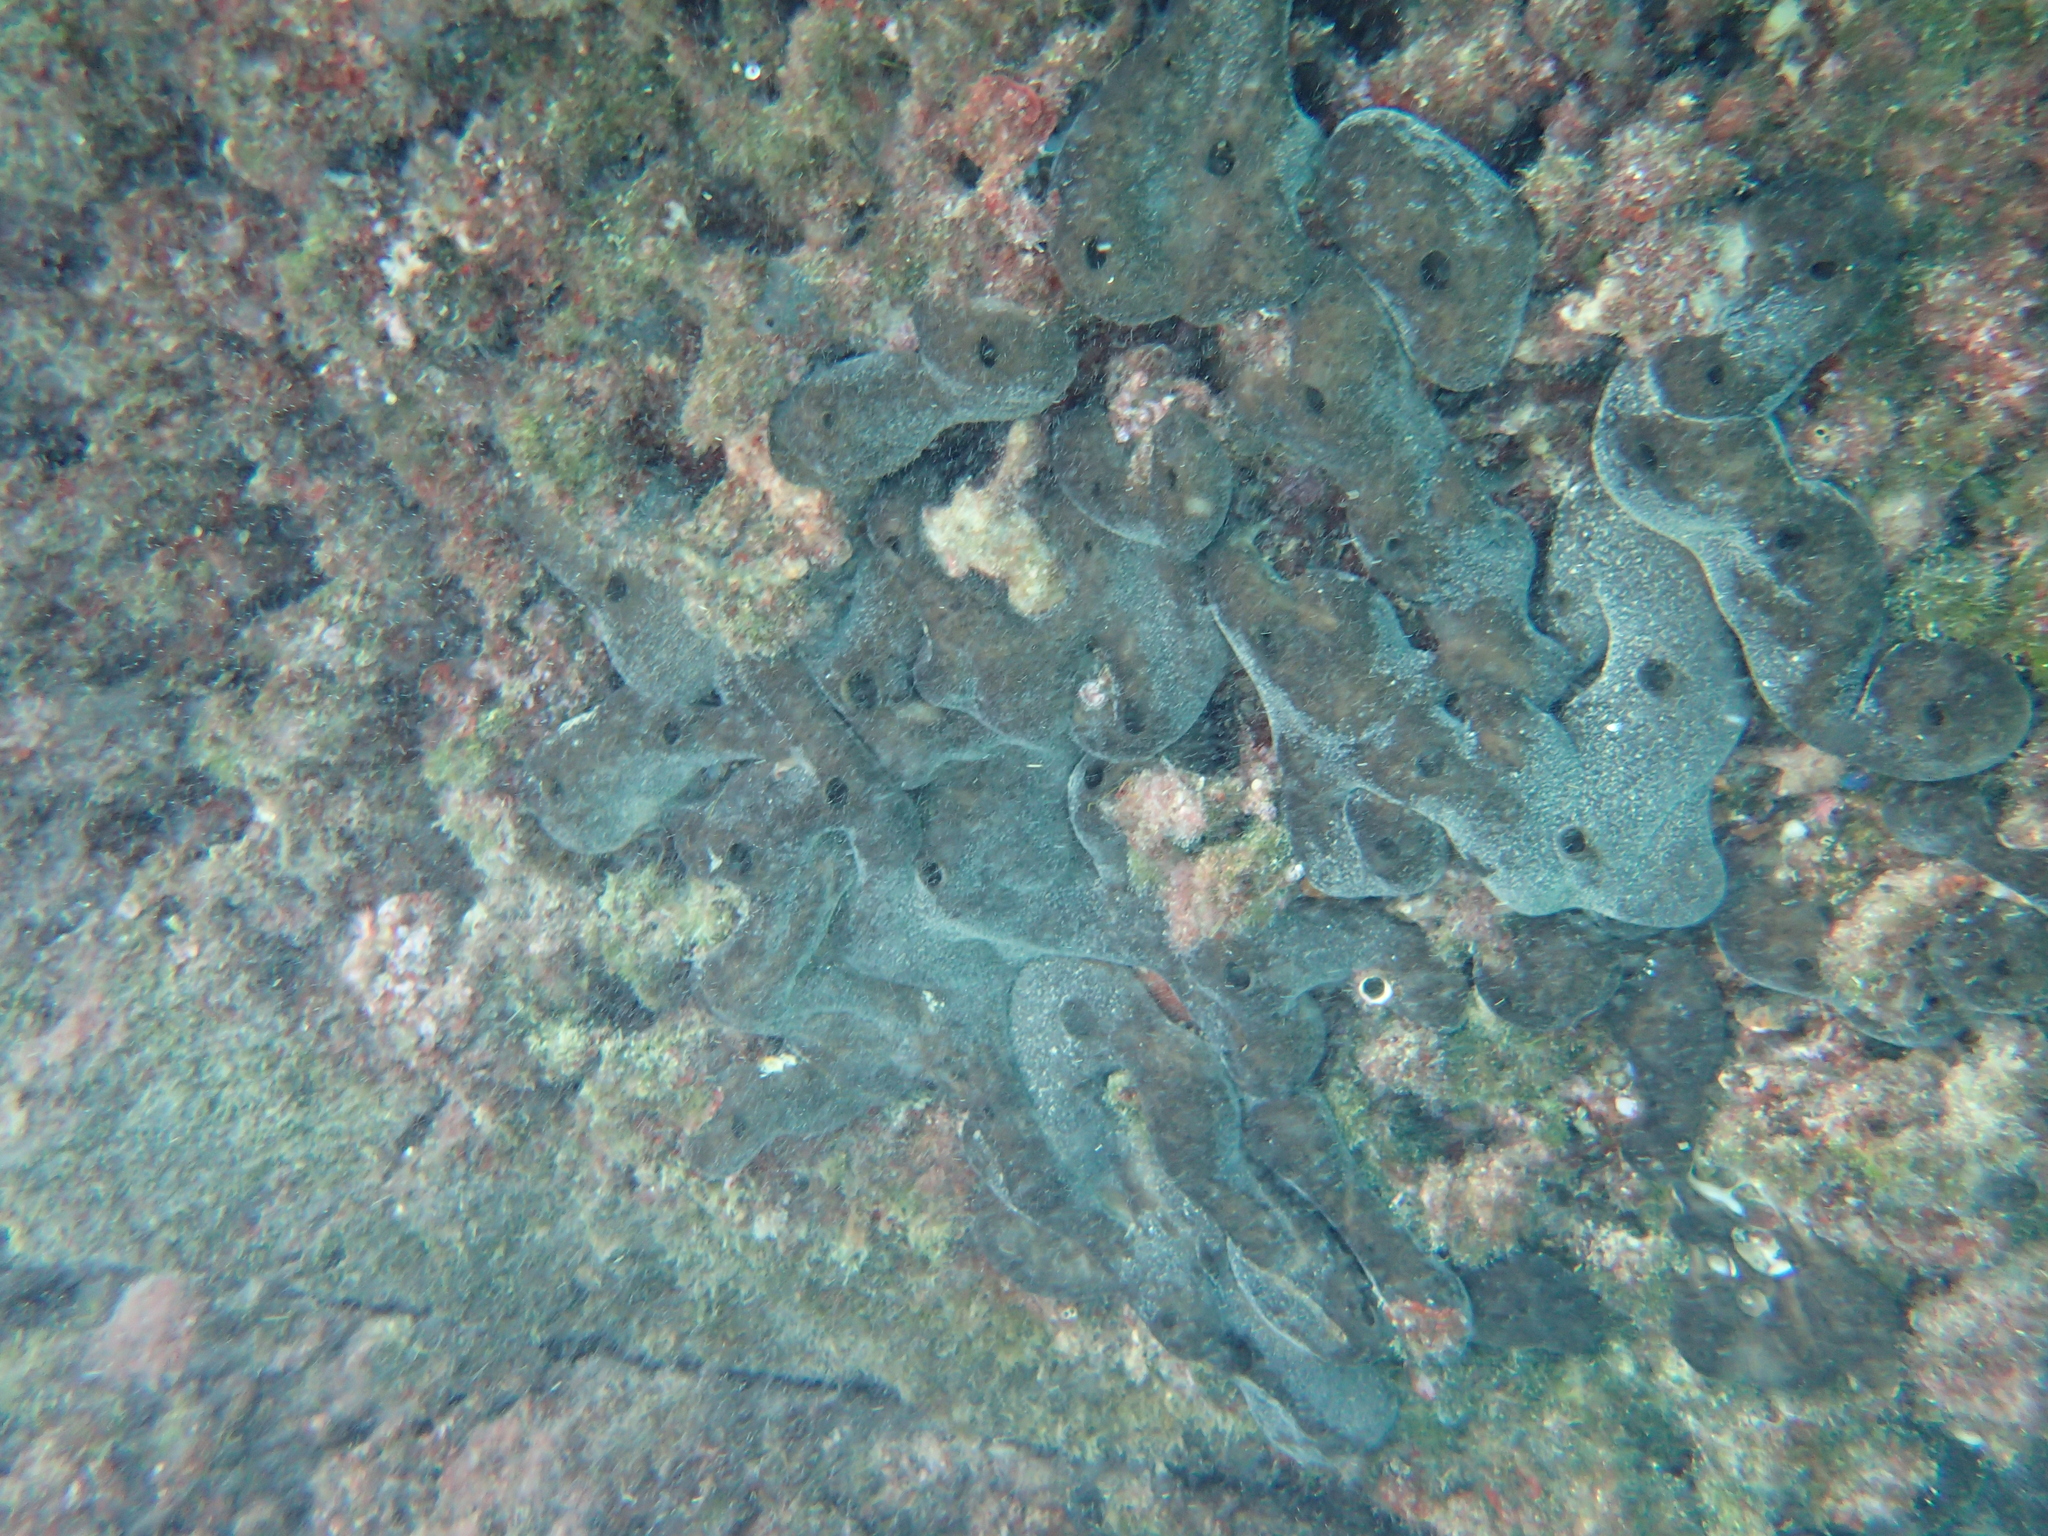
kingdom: Animalia
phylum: Porifera
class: Demospongiae
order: Chondrosiida
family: Chondrosiidae
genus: Chondrosia
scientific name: Chondrosia reniformis
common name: Chicken liver sponge
